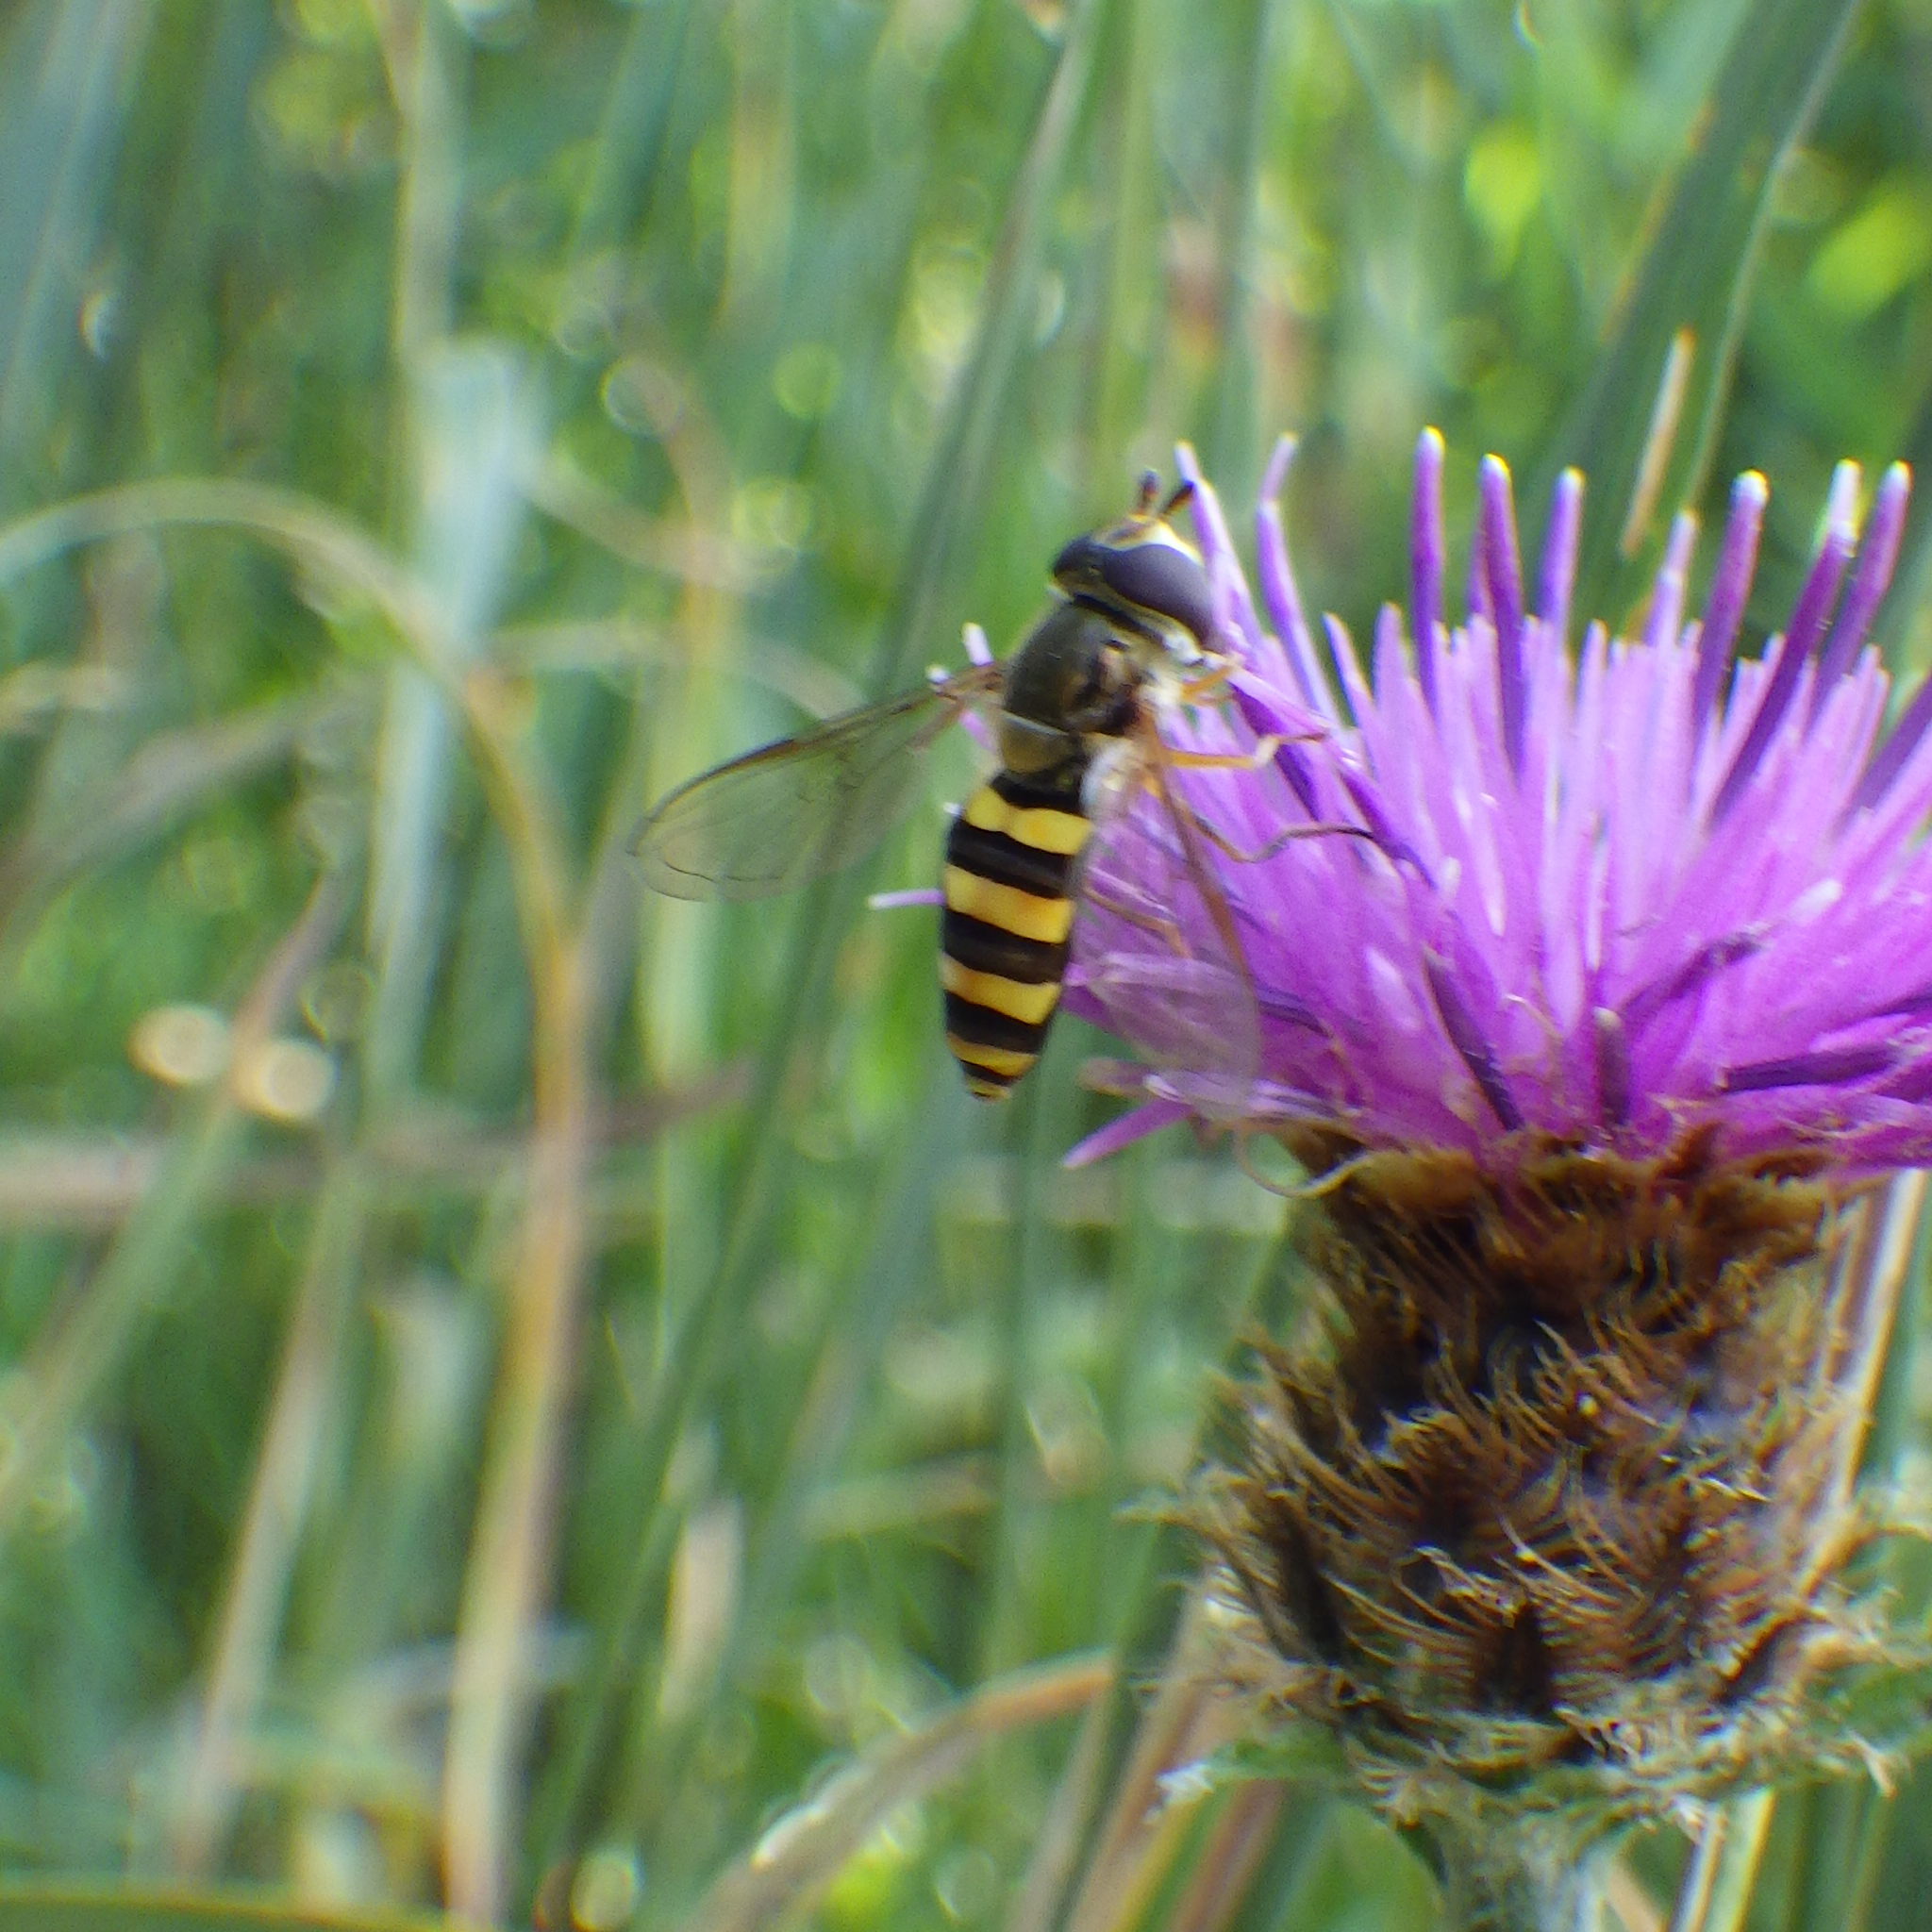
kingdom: Animalia
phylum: Arthropoda
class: Insecta
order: Diptera
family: Syrphidae
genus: Eupeodes
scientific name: Eupeodes
